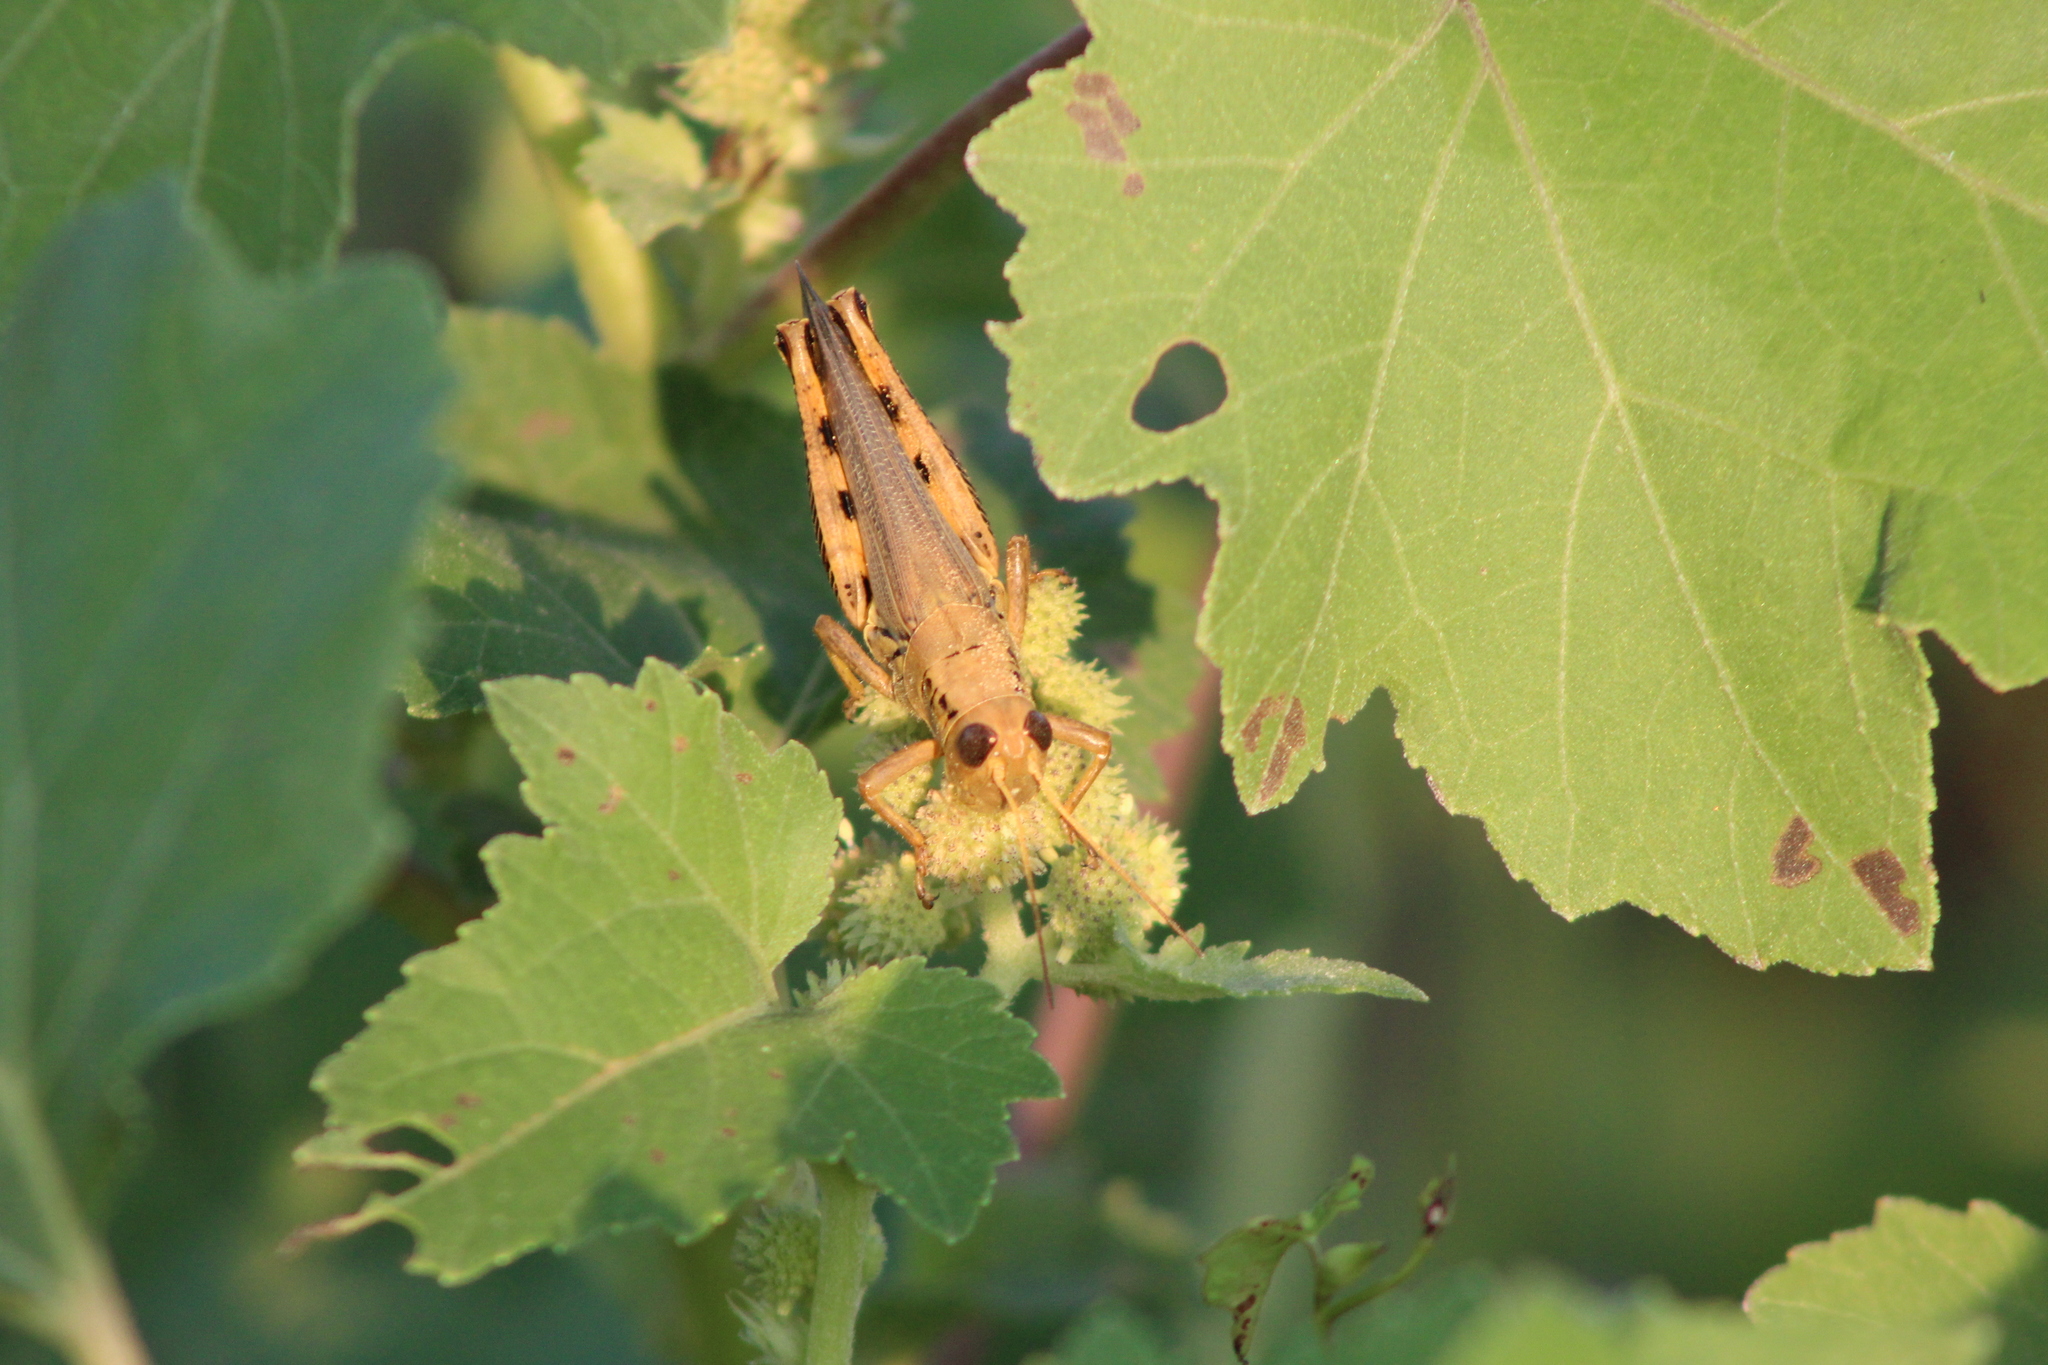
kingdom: Animalia
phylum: Arthropoda
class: Insecta
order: Orthoptera
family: Acrididae
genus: Melanoplus
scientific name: Melanoplus differentialis
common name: Differential grasshopper
